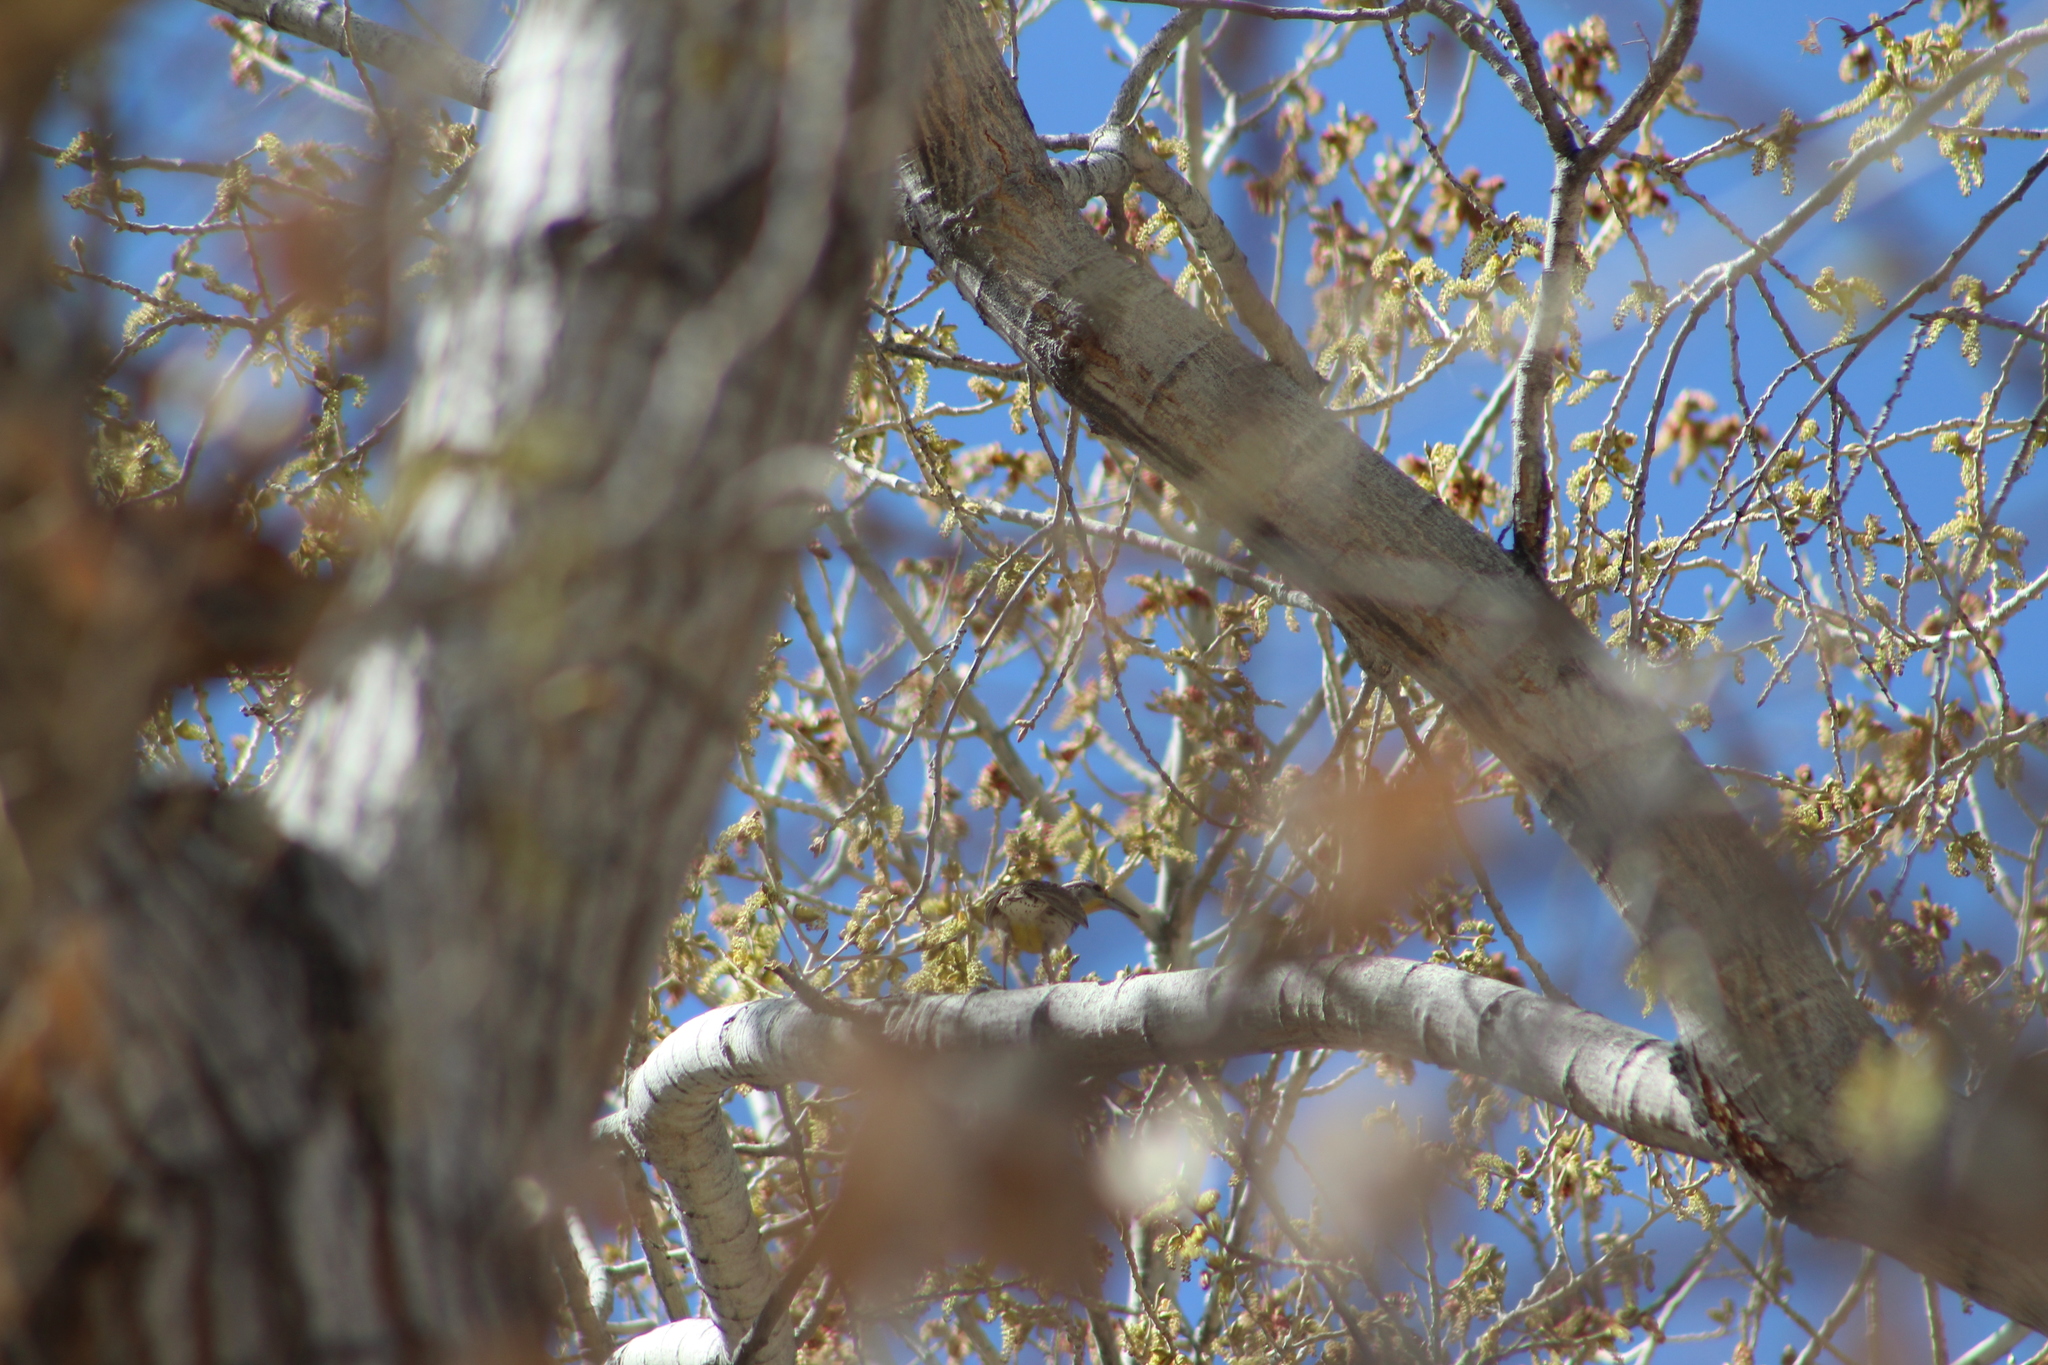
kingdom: Animalia
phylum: Chordata
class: Aves
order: Passeriformes
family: Icteridae
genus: Sturnella
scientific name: Sturnella neglecta
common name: Western meadowlark
